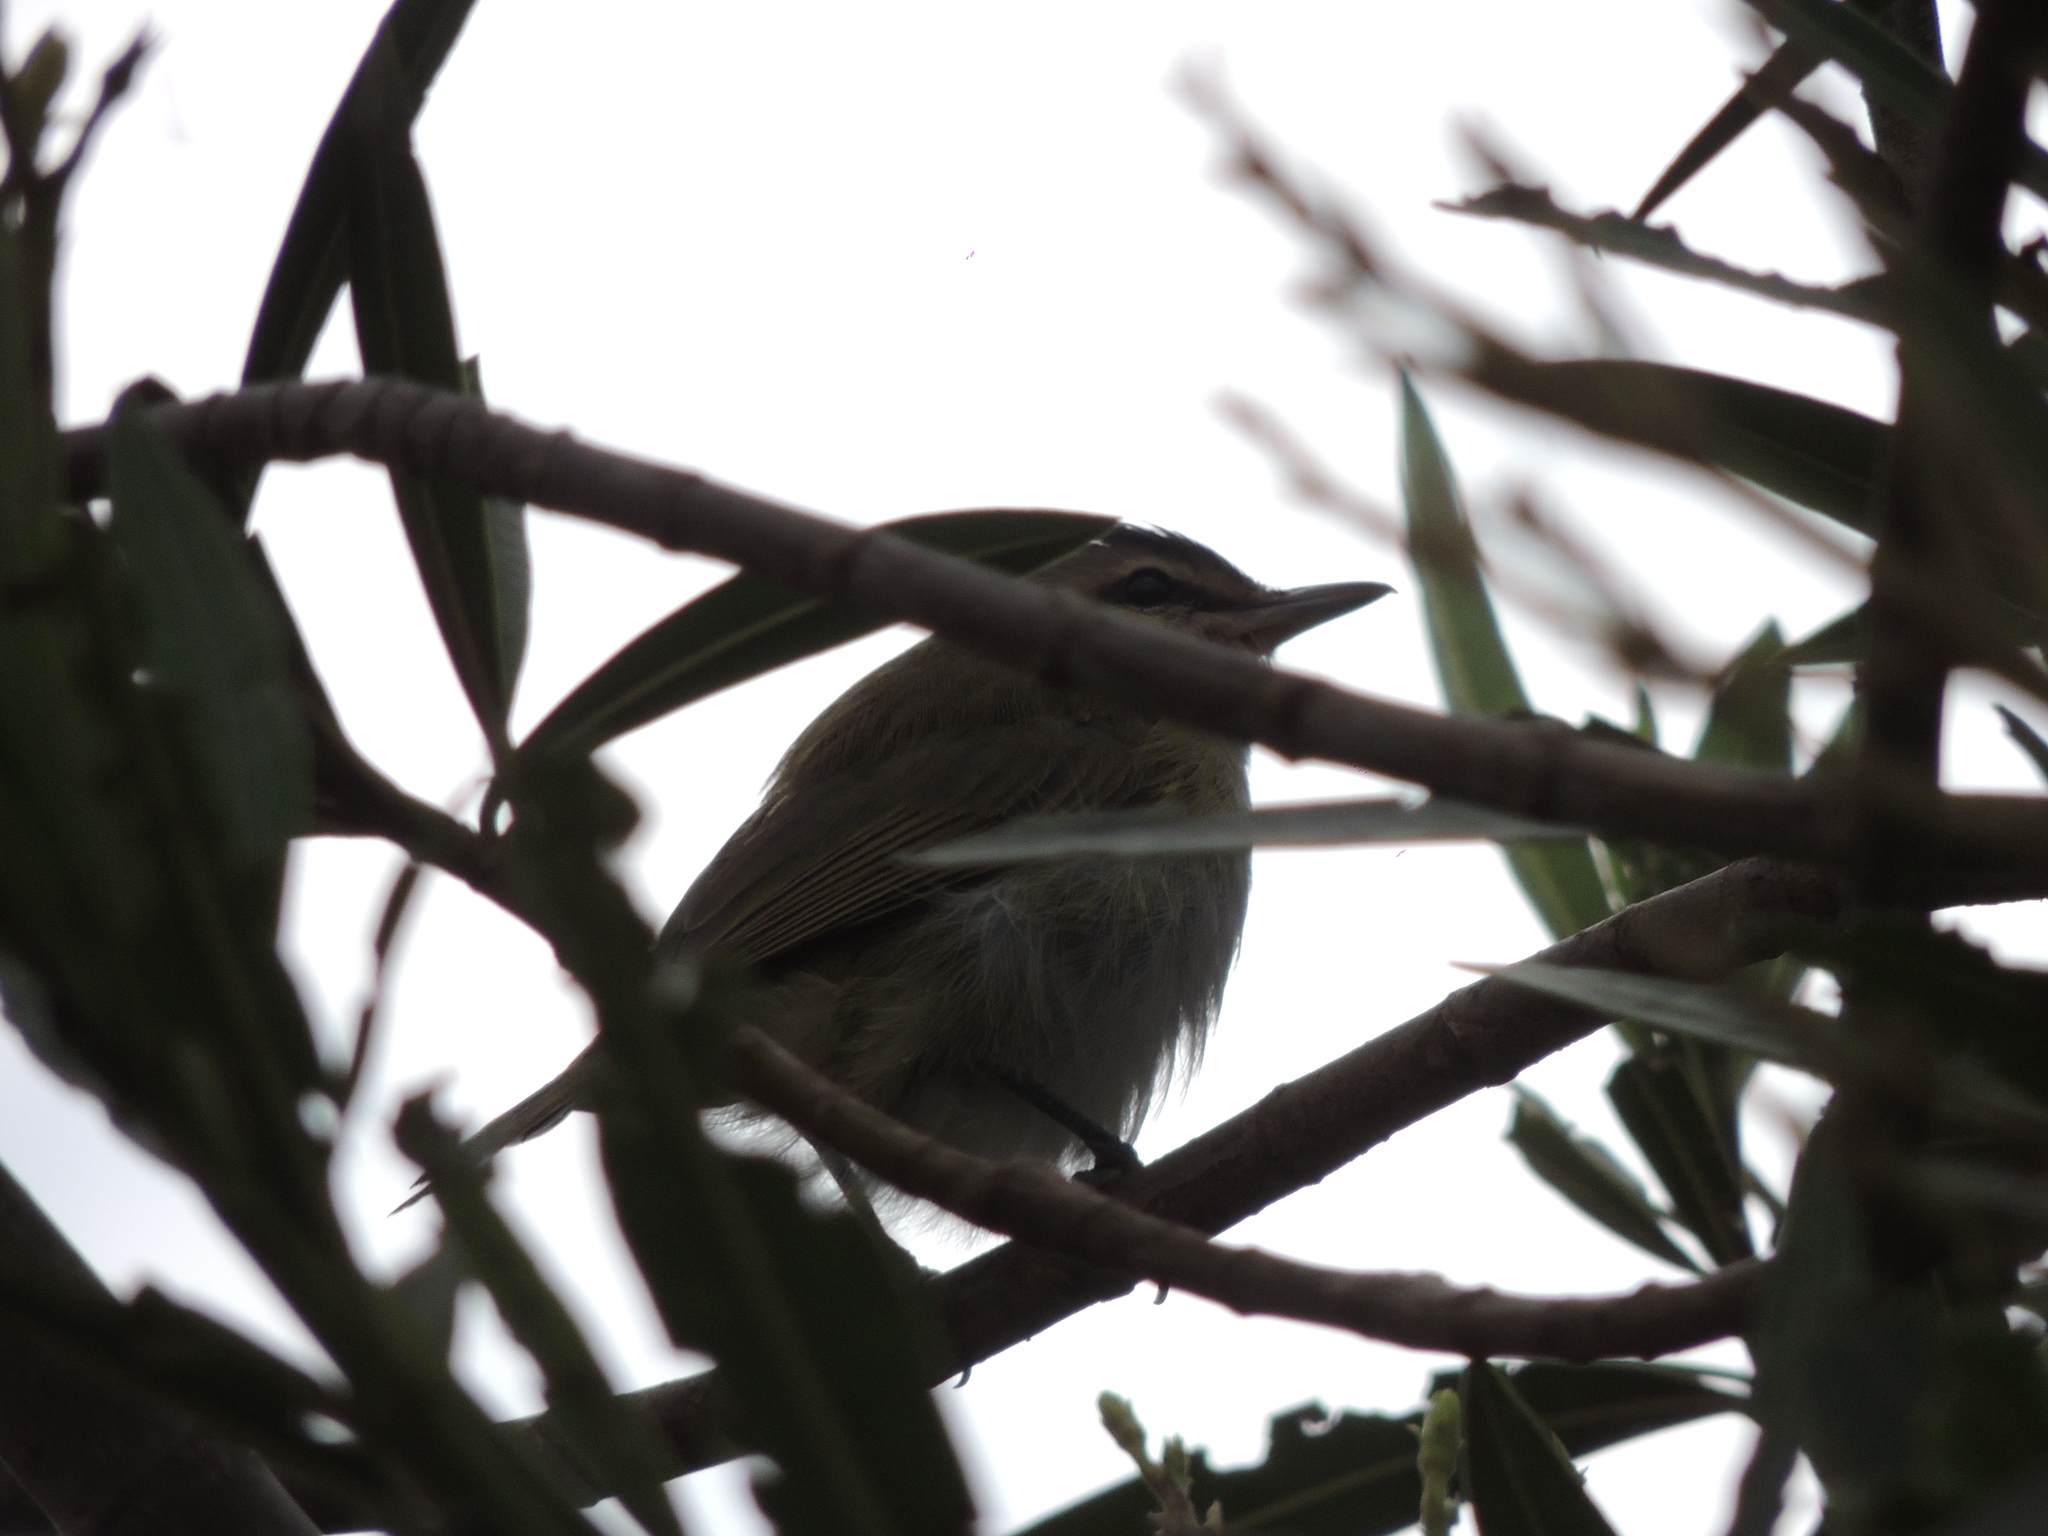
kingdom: Animalia
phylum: Chordata
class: Aves
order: Passeriformes
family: Vireonidae
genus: Vireo
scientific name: Vireo olivaceus
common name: Red-eyed vireo
